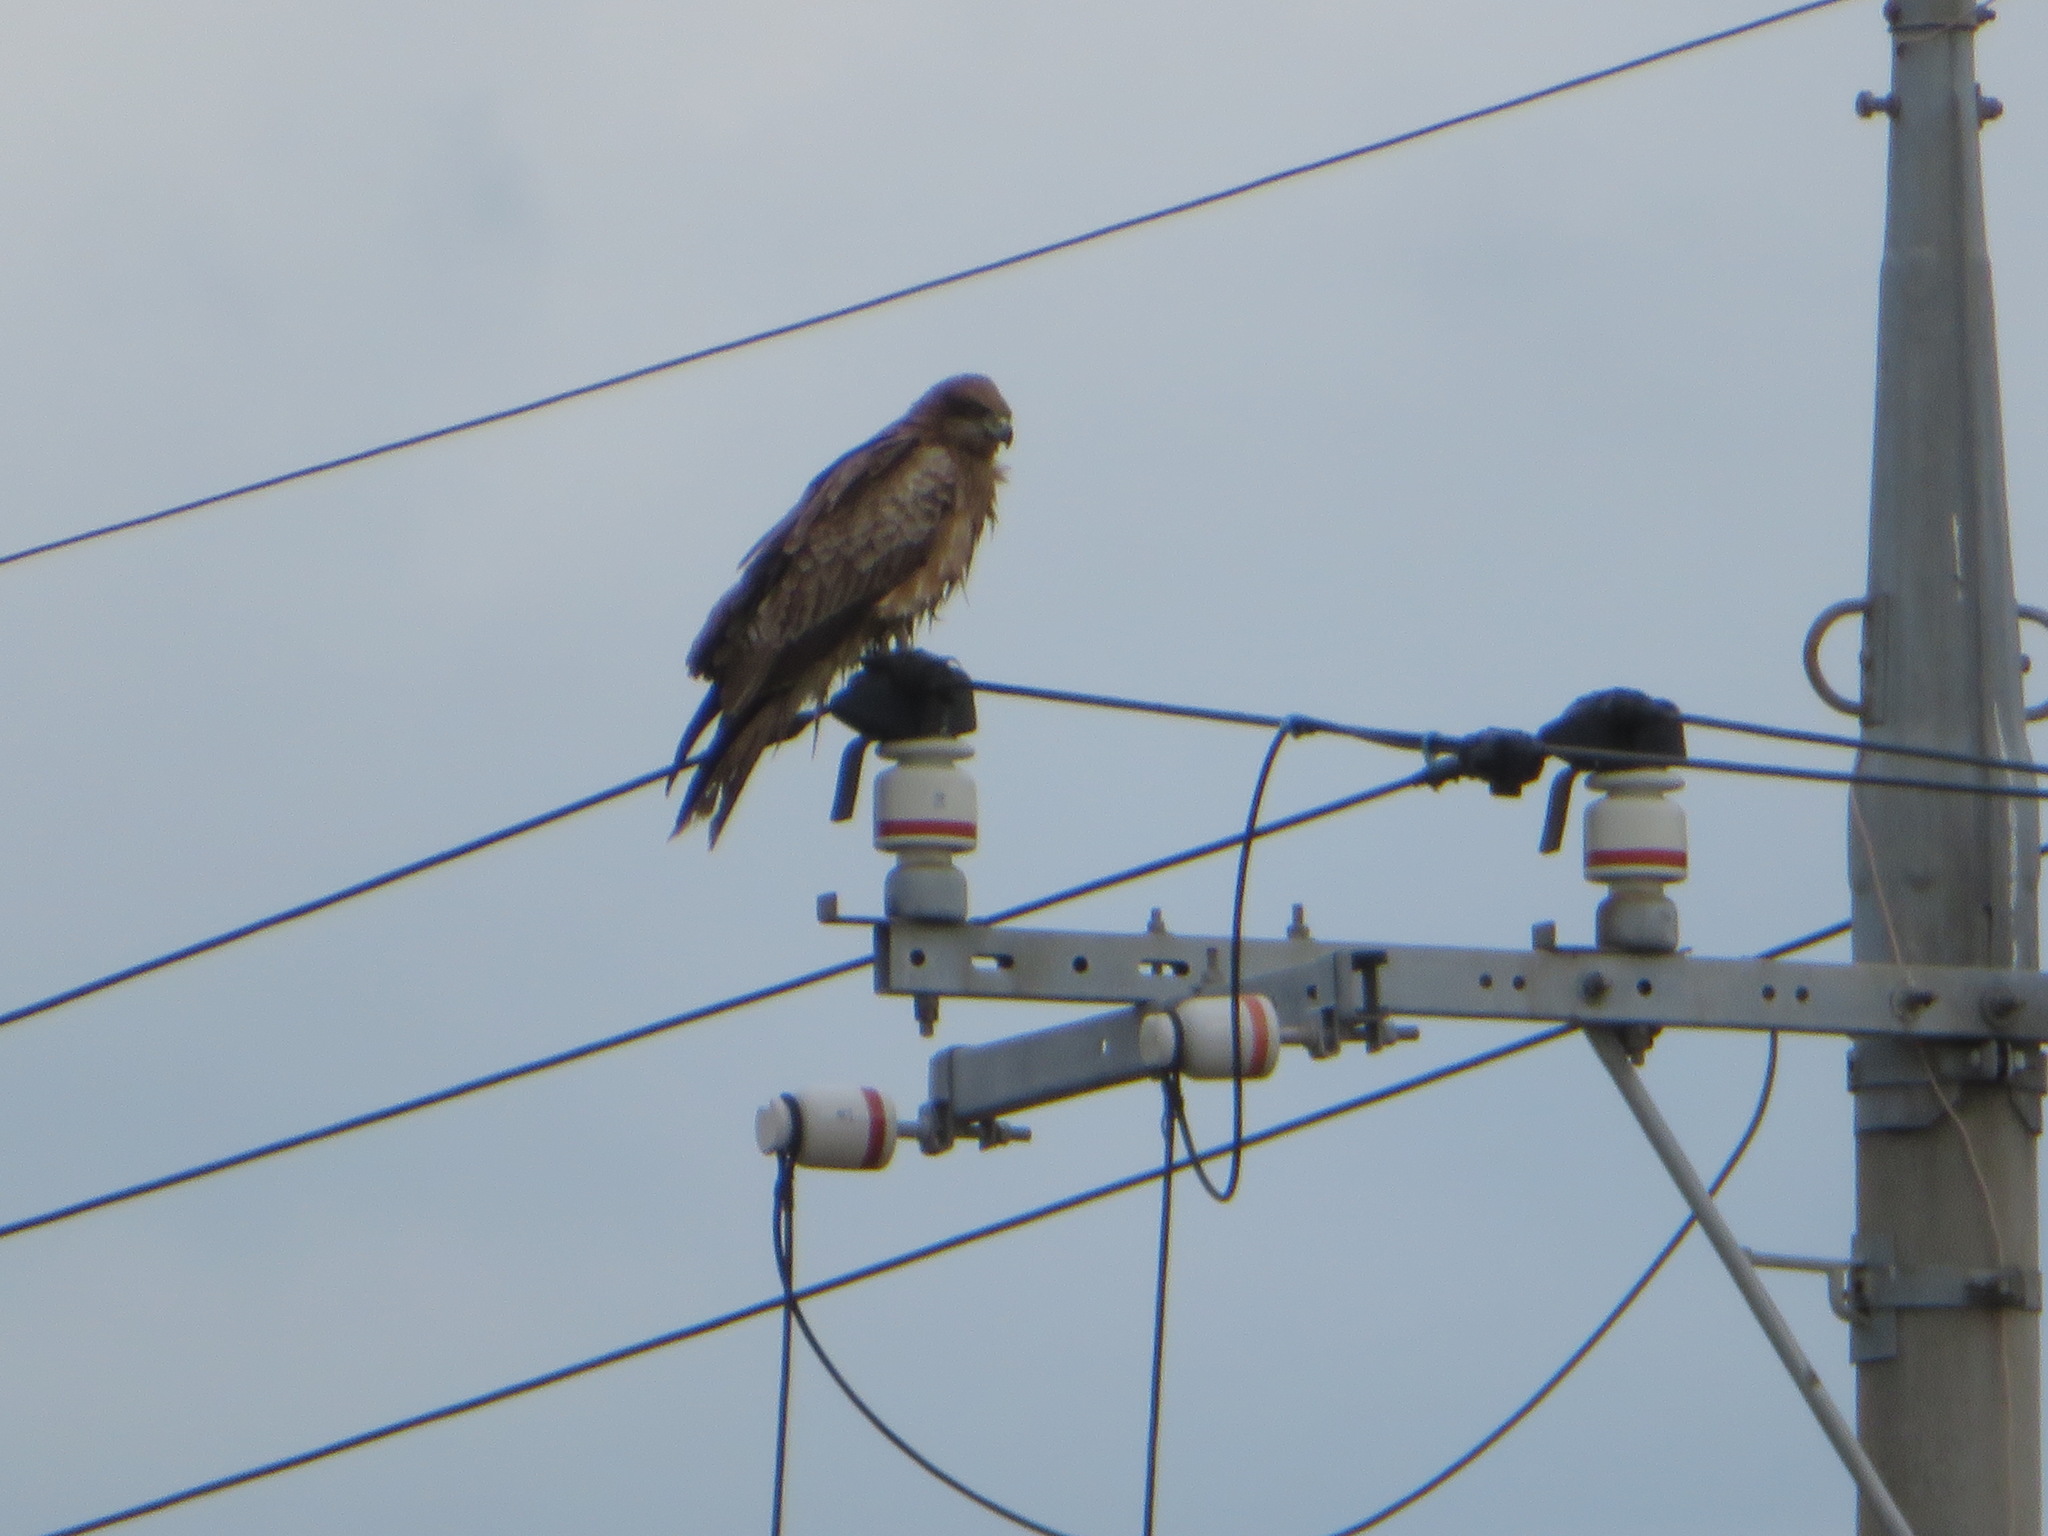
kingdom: Animalia
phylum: Chordata
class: Aves
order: Accipitriformes
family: Accipitridae
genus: Milvus
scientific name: Milvus migrans
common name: Black kite
